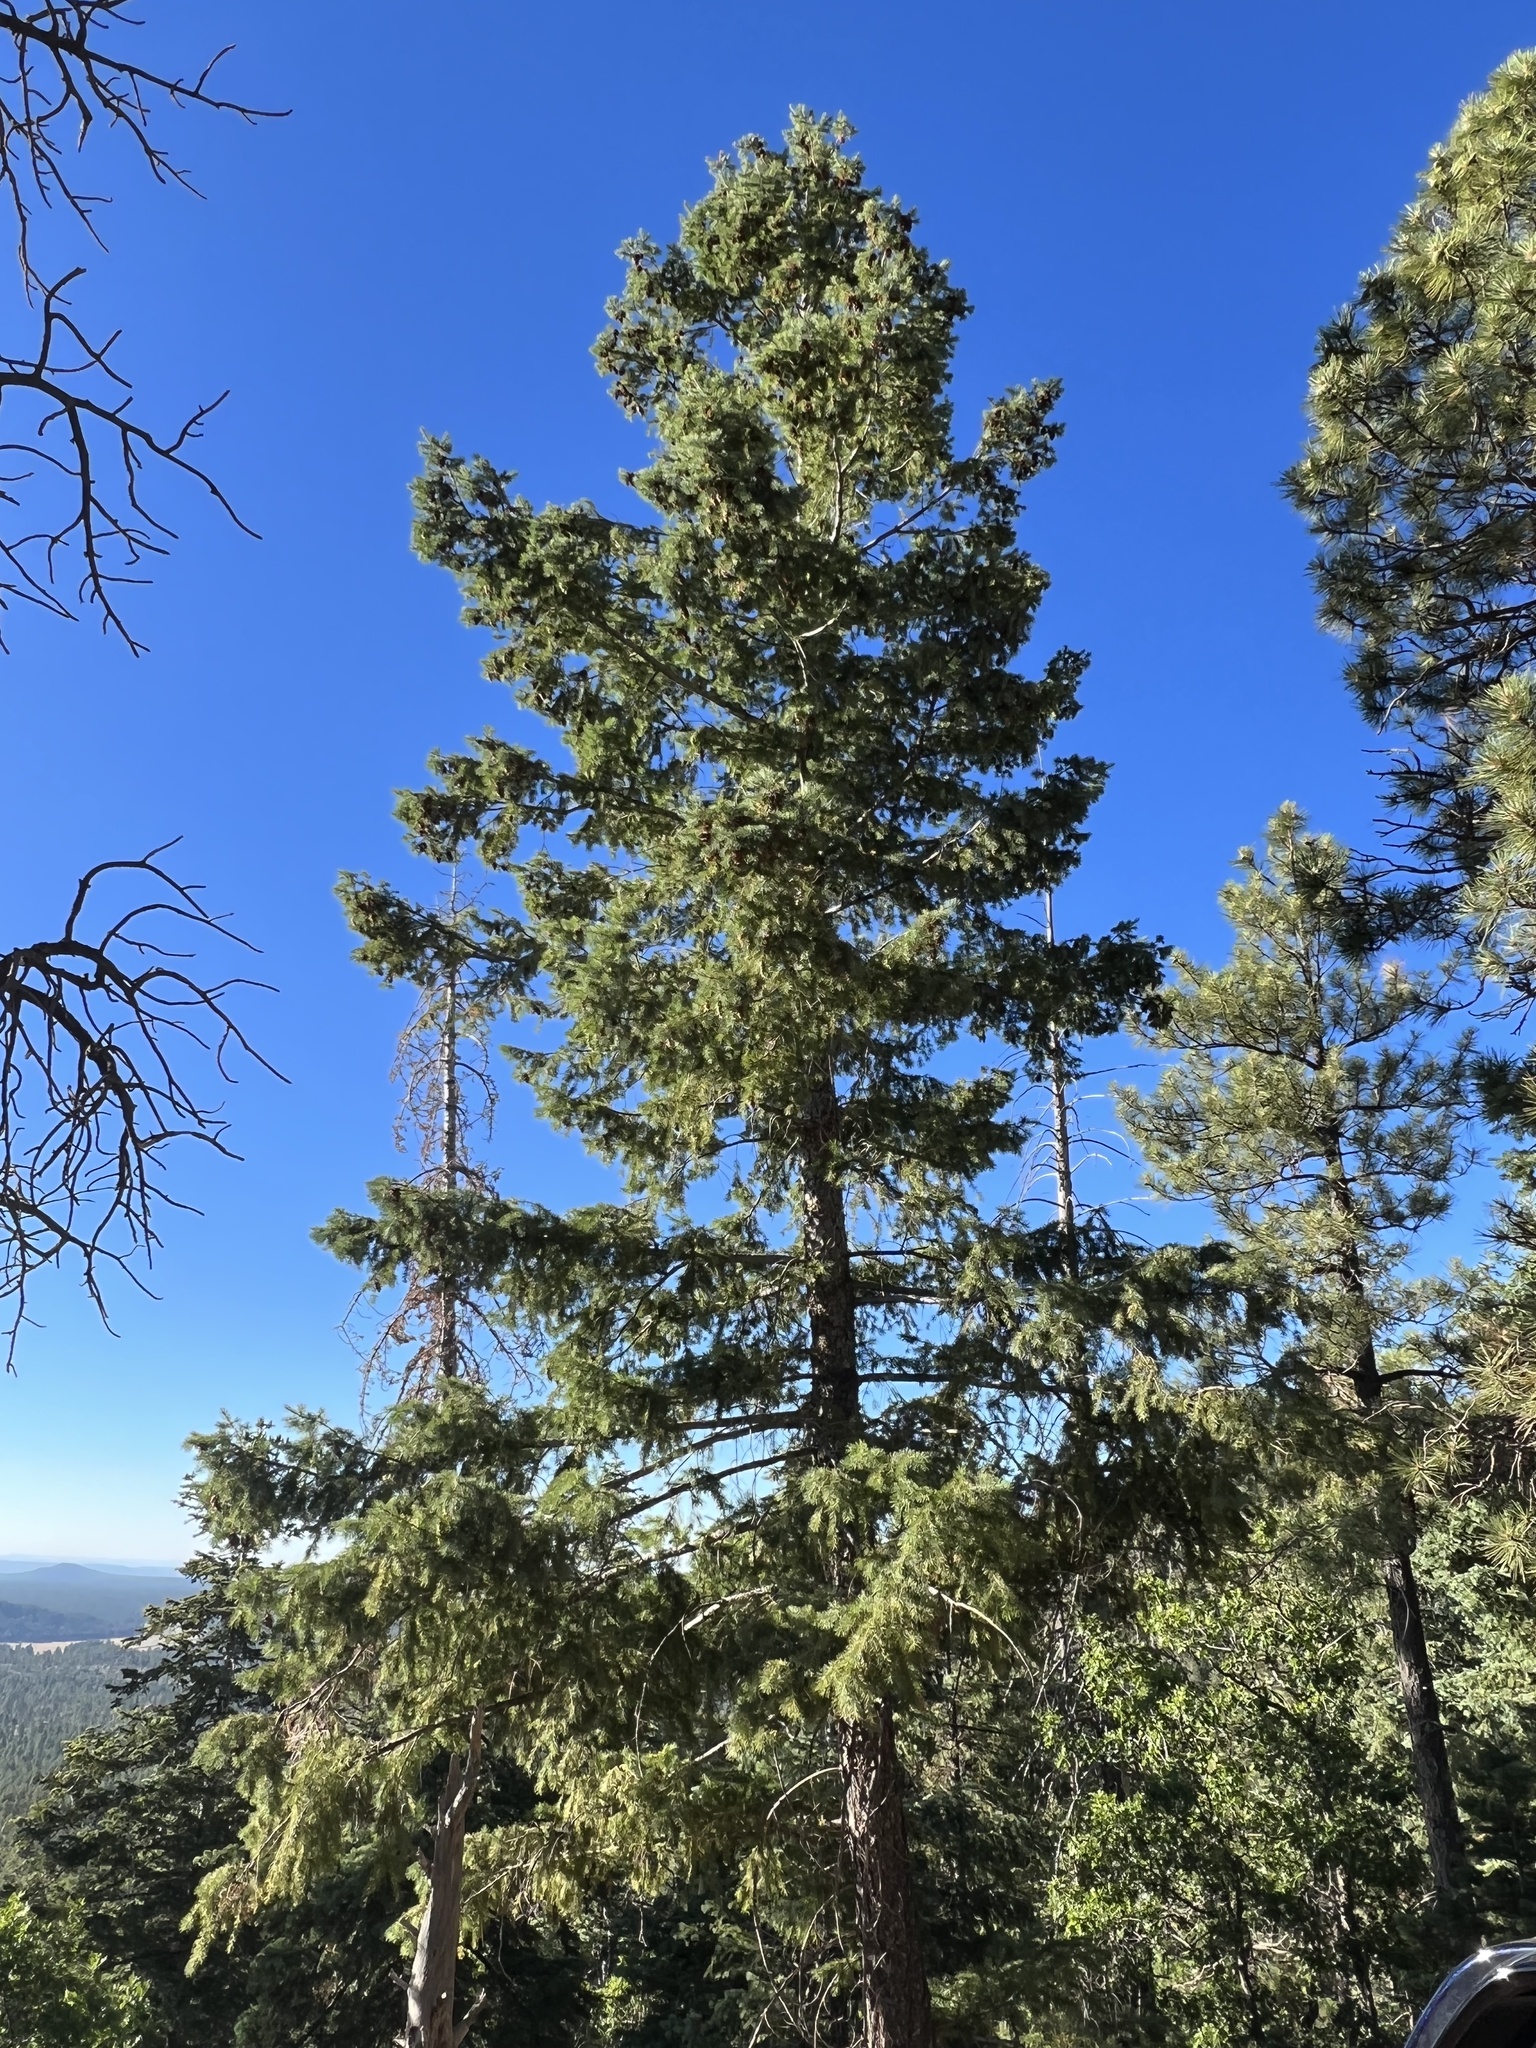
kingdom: Plantae
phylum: Tracheophyta
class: Pinopsida
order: Pinales
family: Pinaceae
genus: Pseudotsuga
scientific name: Pseudotsuga menziesii
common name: Douglas fir
